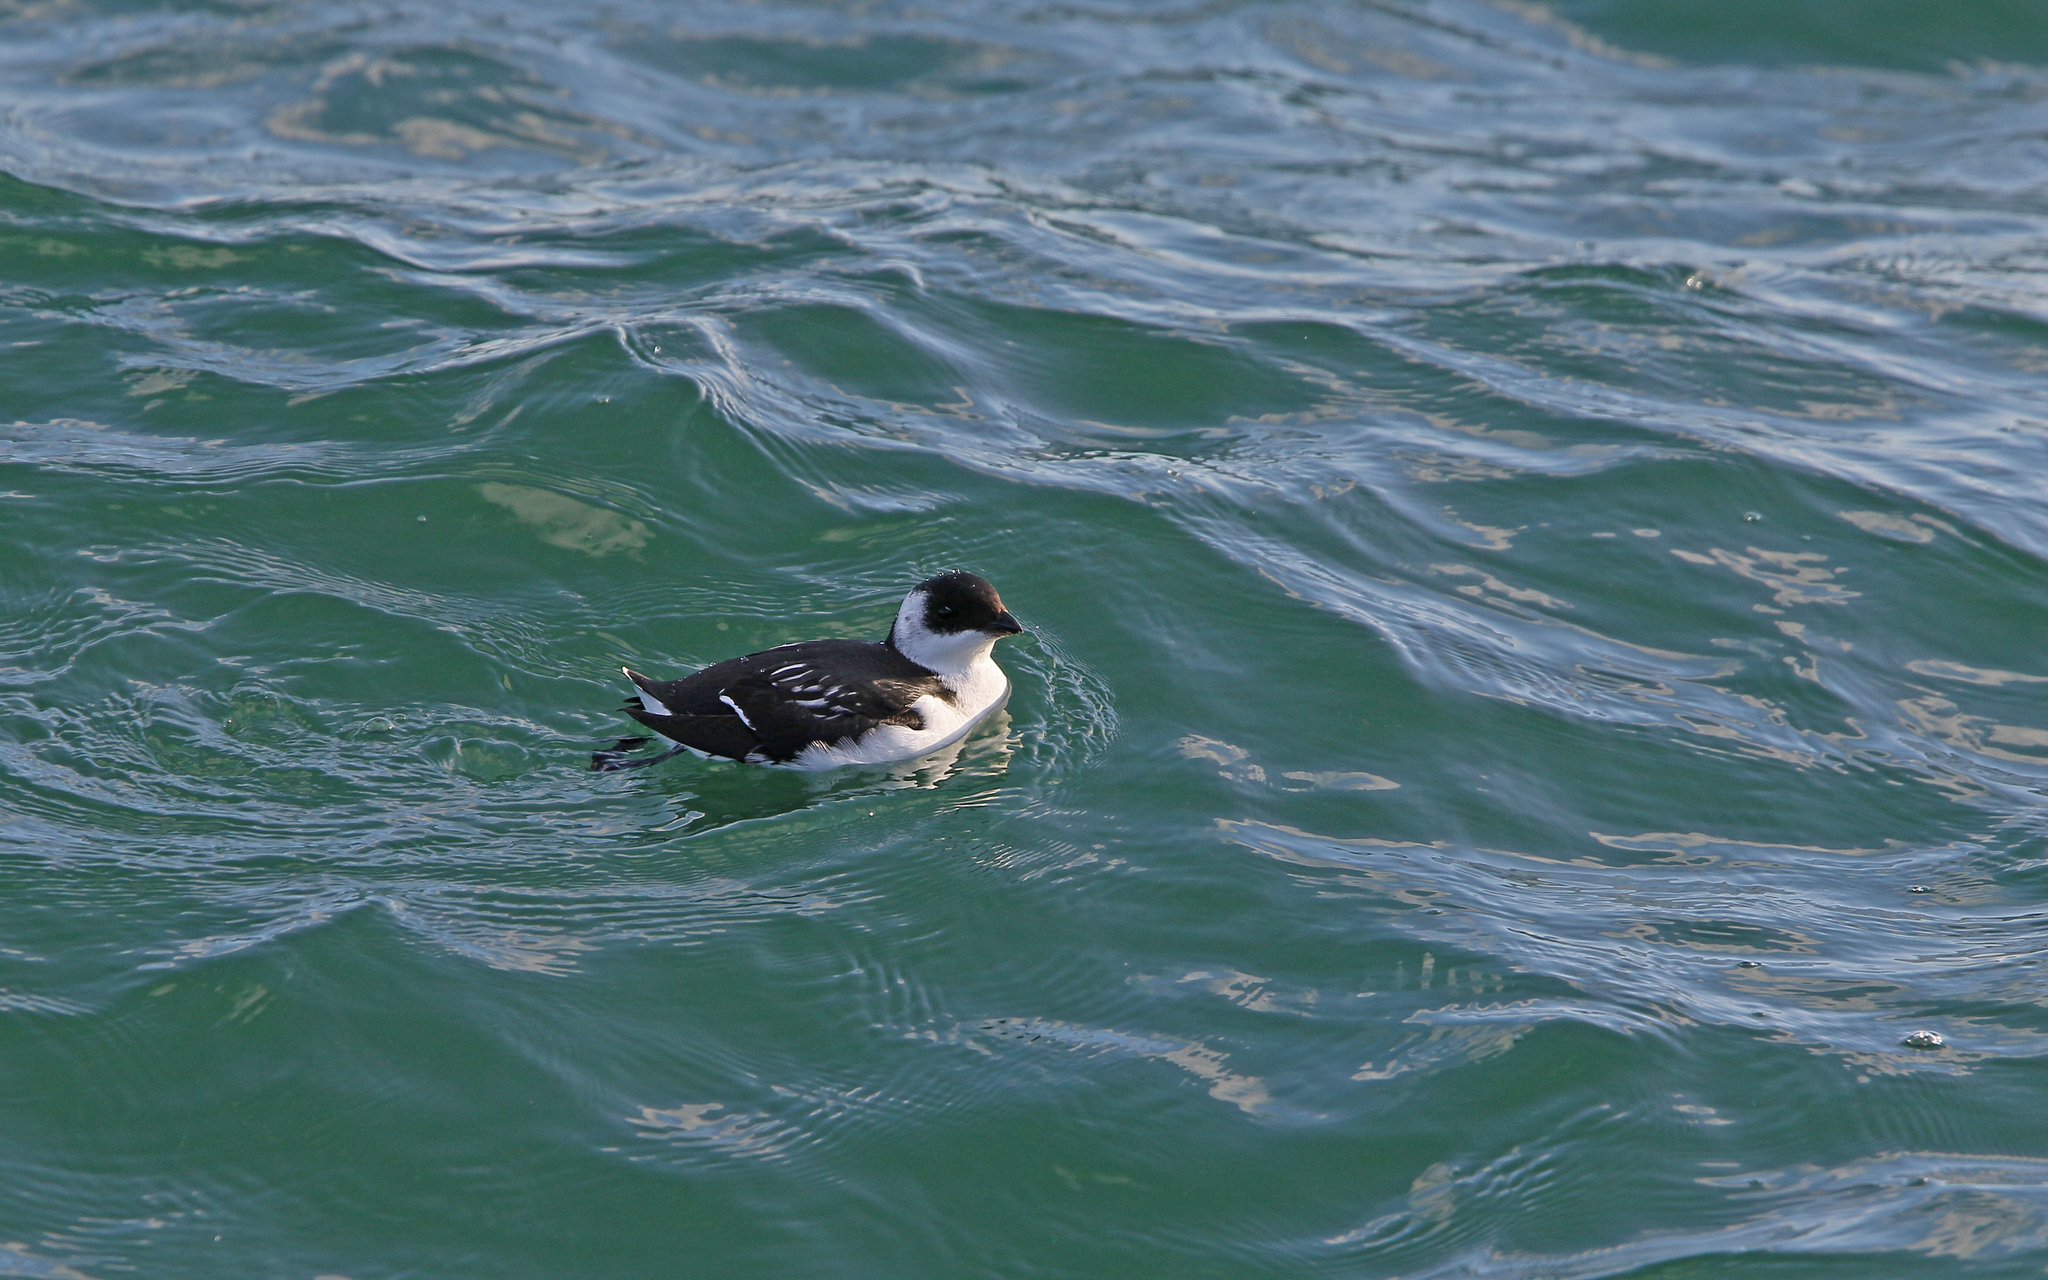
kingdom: Animalia
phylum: Chordata
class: Aves
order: Charadriiformes
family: Alcidae
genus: Alle
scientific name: Alle alle
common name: Little auk
